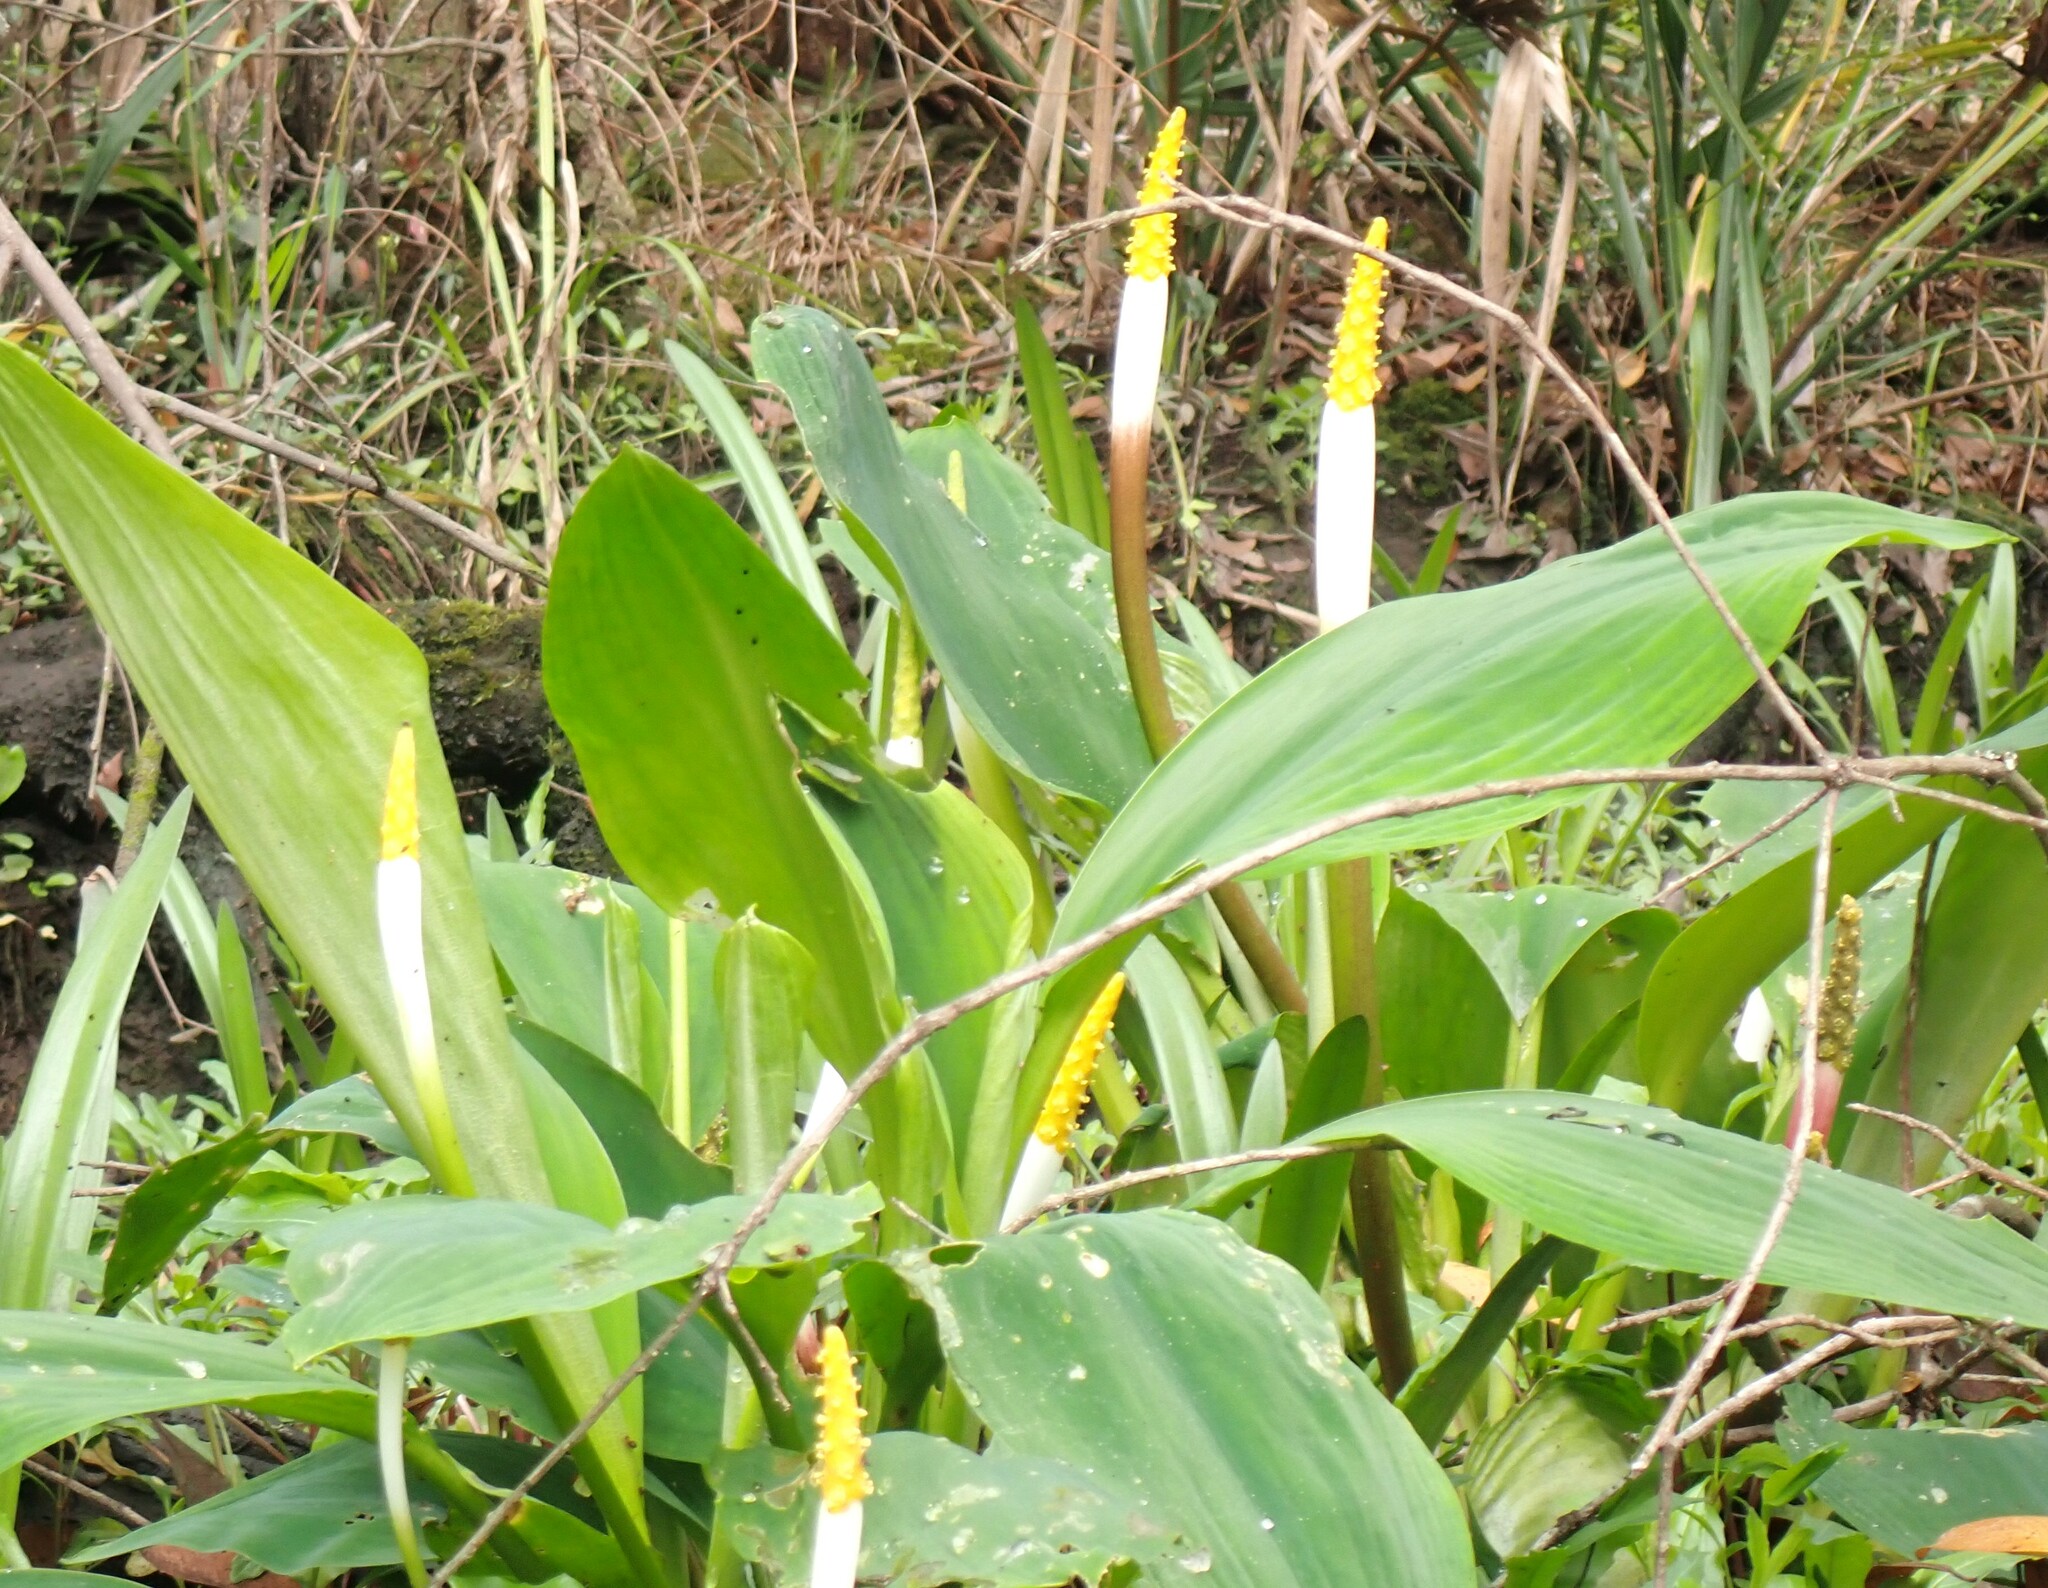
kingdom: Plantae
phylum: Tracheophyta
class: Liliopsida
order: Alismatales
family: Araceae
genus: Orontium
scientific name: Orontium aquaticum
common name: Golden-club
